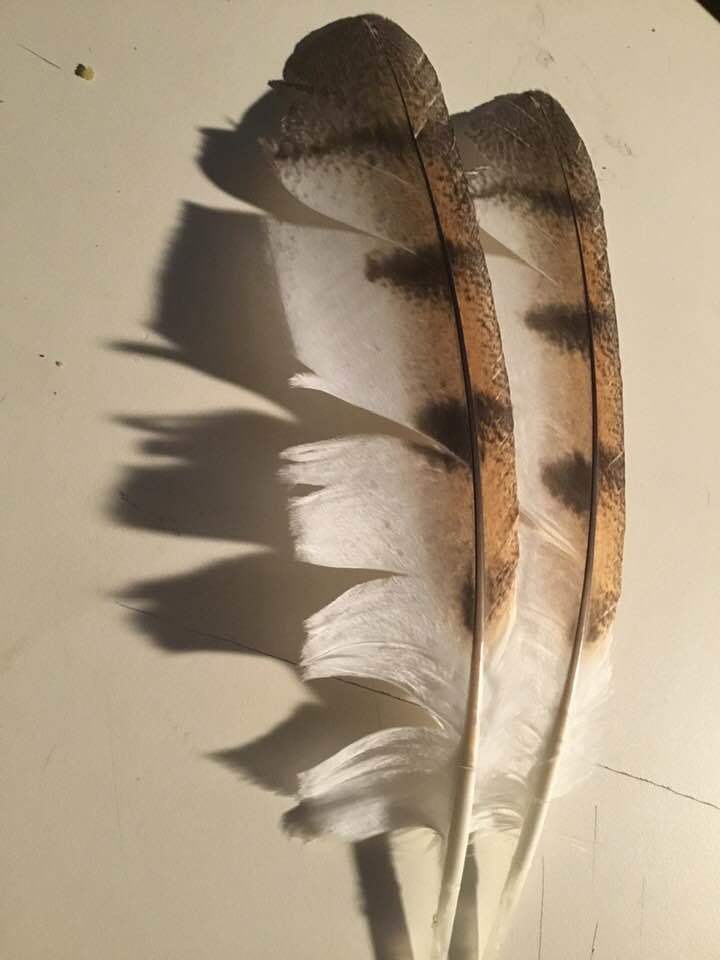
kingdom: Animalia
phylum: Chordata
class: Aves
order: Strigiformes
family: Tytonidae
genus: Tyto
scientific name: Tyto alba
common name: Barn owl
